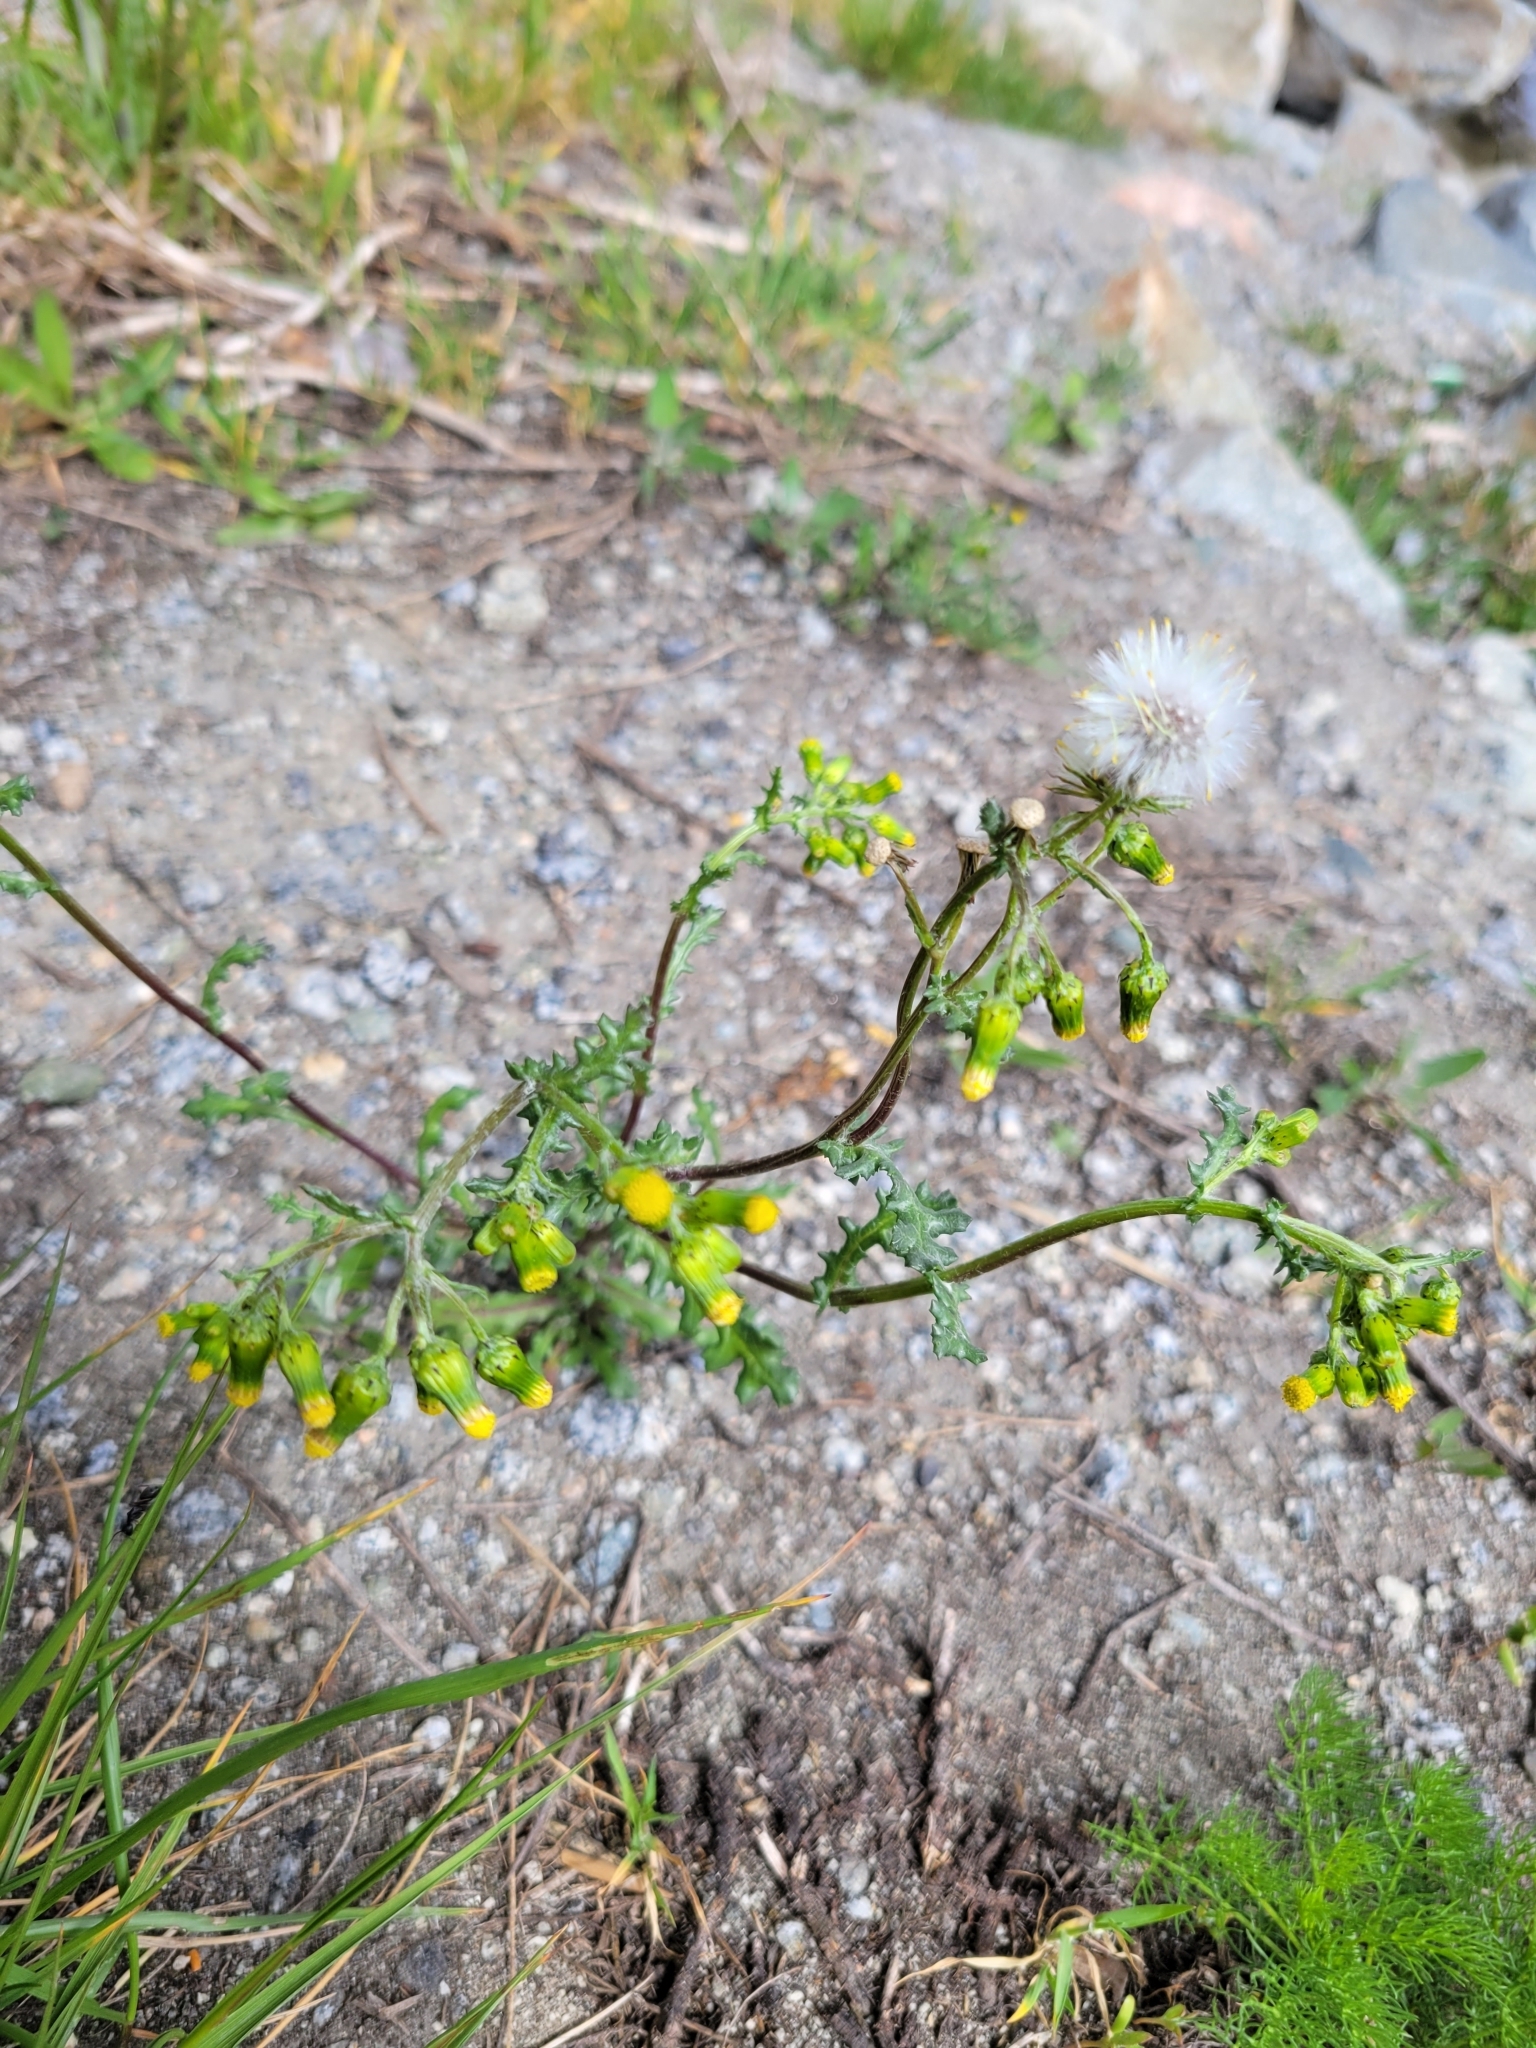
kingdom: Plantae
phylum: Tracheophyta
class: Magnoliopsida
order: Asterales
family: Asteraceae
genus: Senecio
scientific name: Senecio vulgaris
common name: Old-man-in-the-spring
